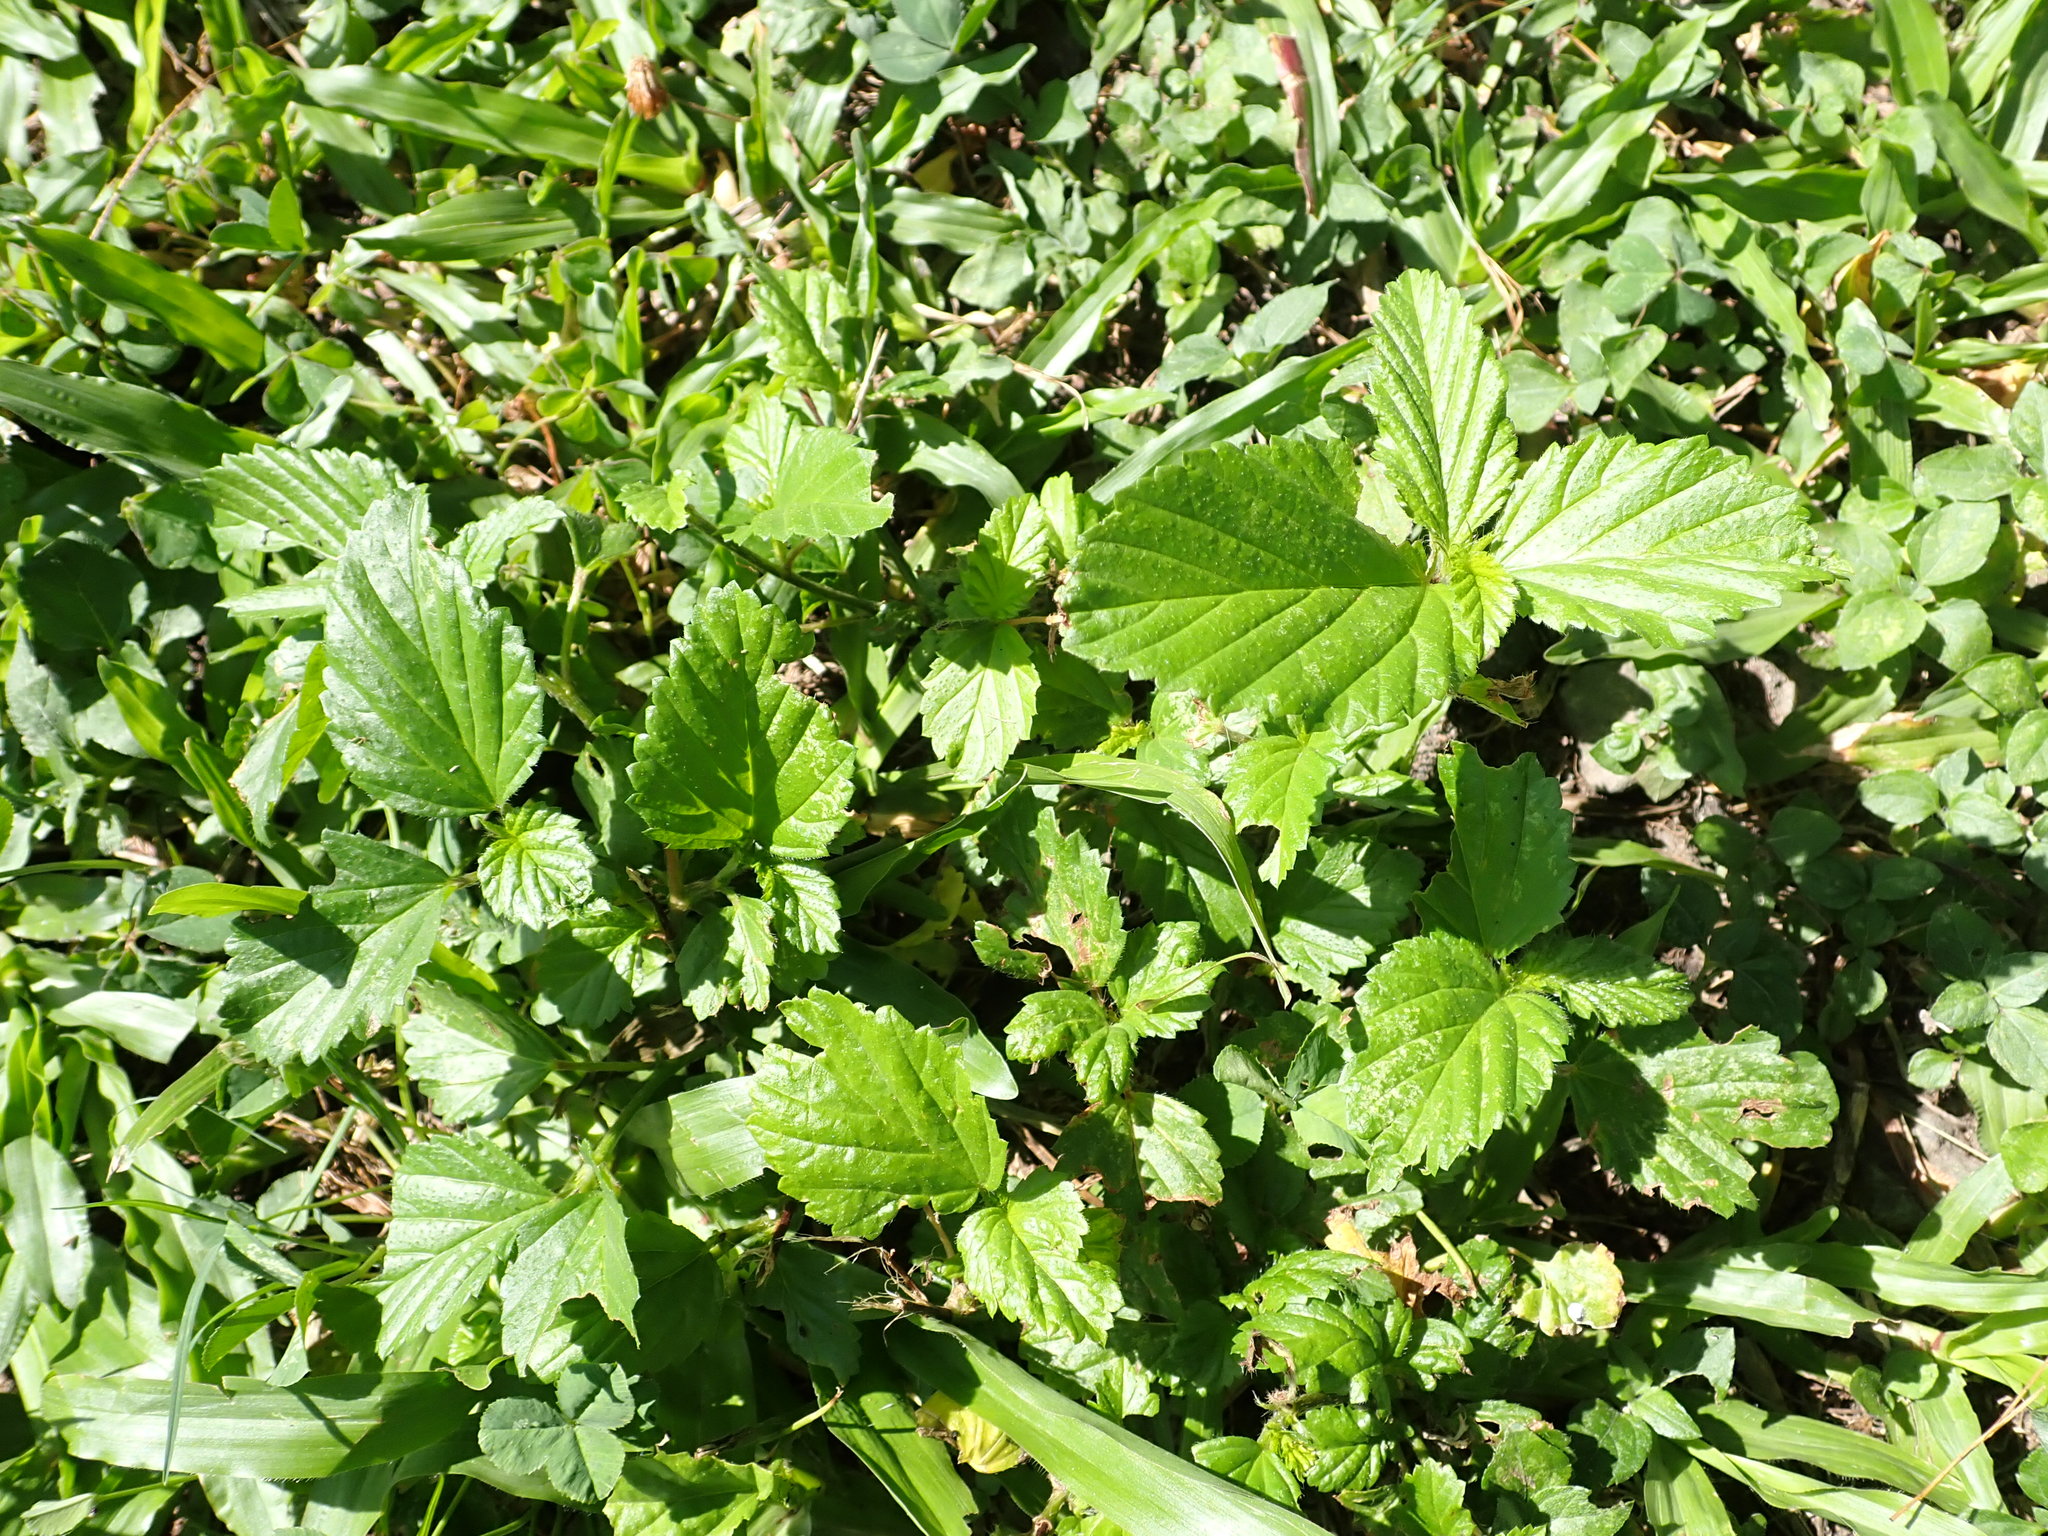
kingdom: Plantae
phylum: Tracheophyta
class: Magnoliopsida
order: Malvales
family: Malvaceae
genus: Malvastrum
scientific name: Malvastrum coromandelianum
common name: Threelobe false mallow
